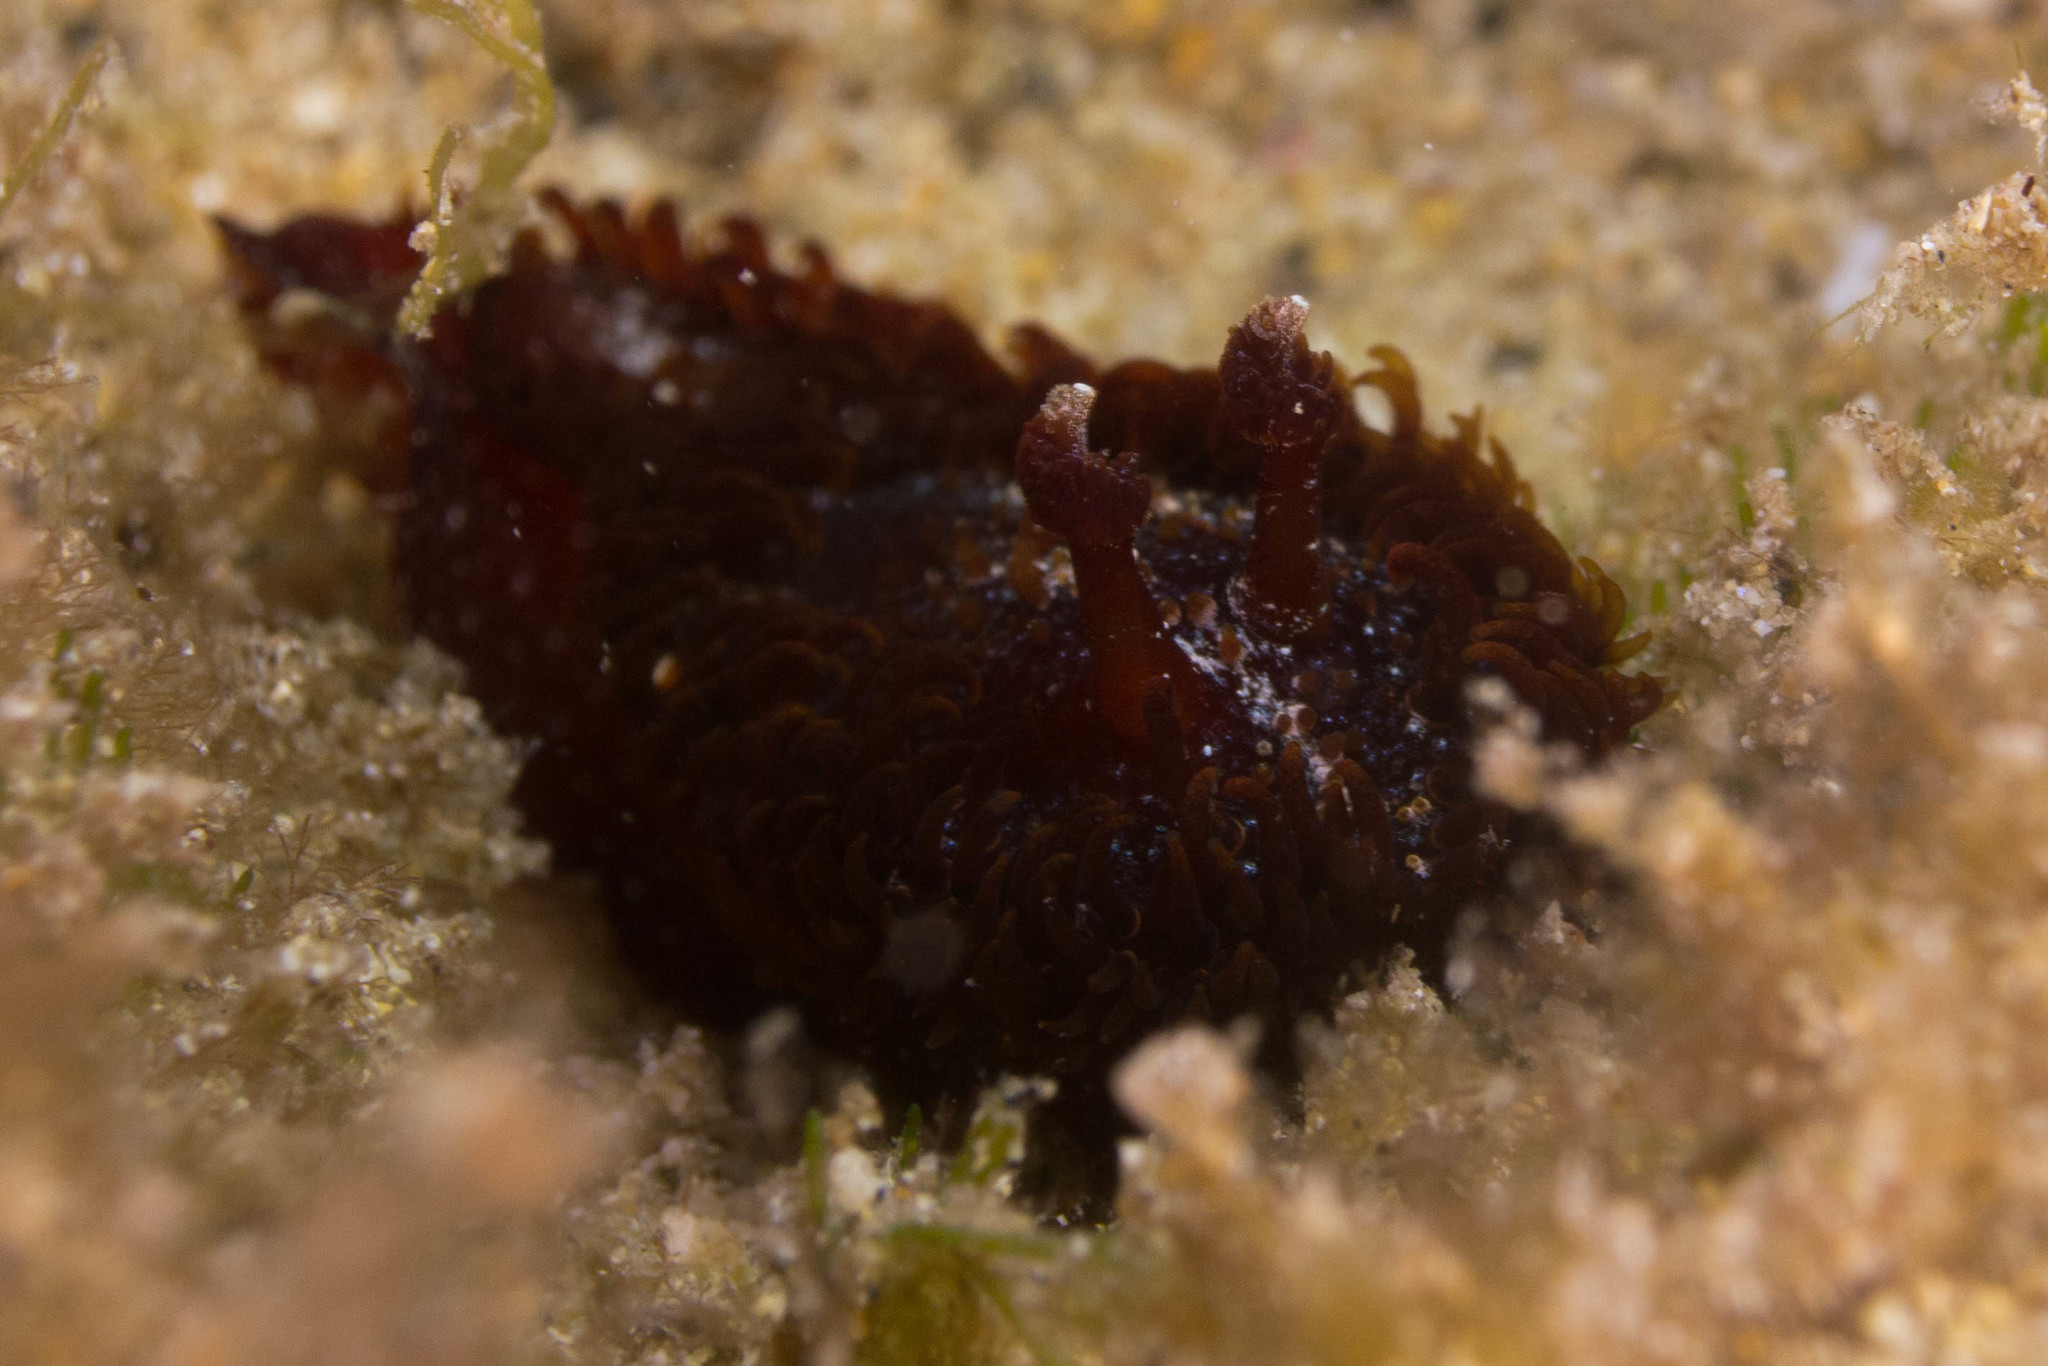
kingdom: Animalia
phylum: Mollusca
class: Gastropoda
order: Nudibranchia
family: Madrellidae
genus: Madrella
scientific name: Madrella ferruginosa
